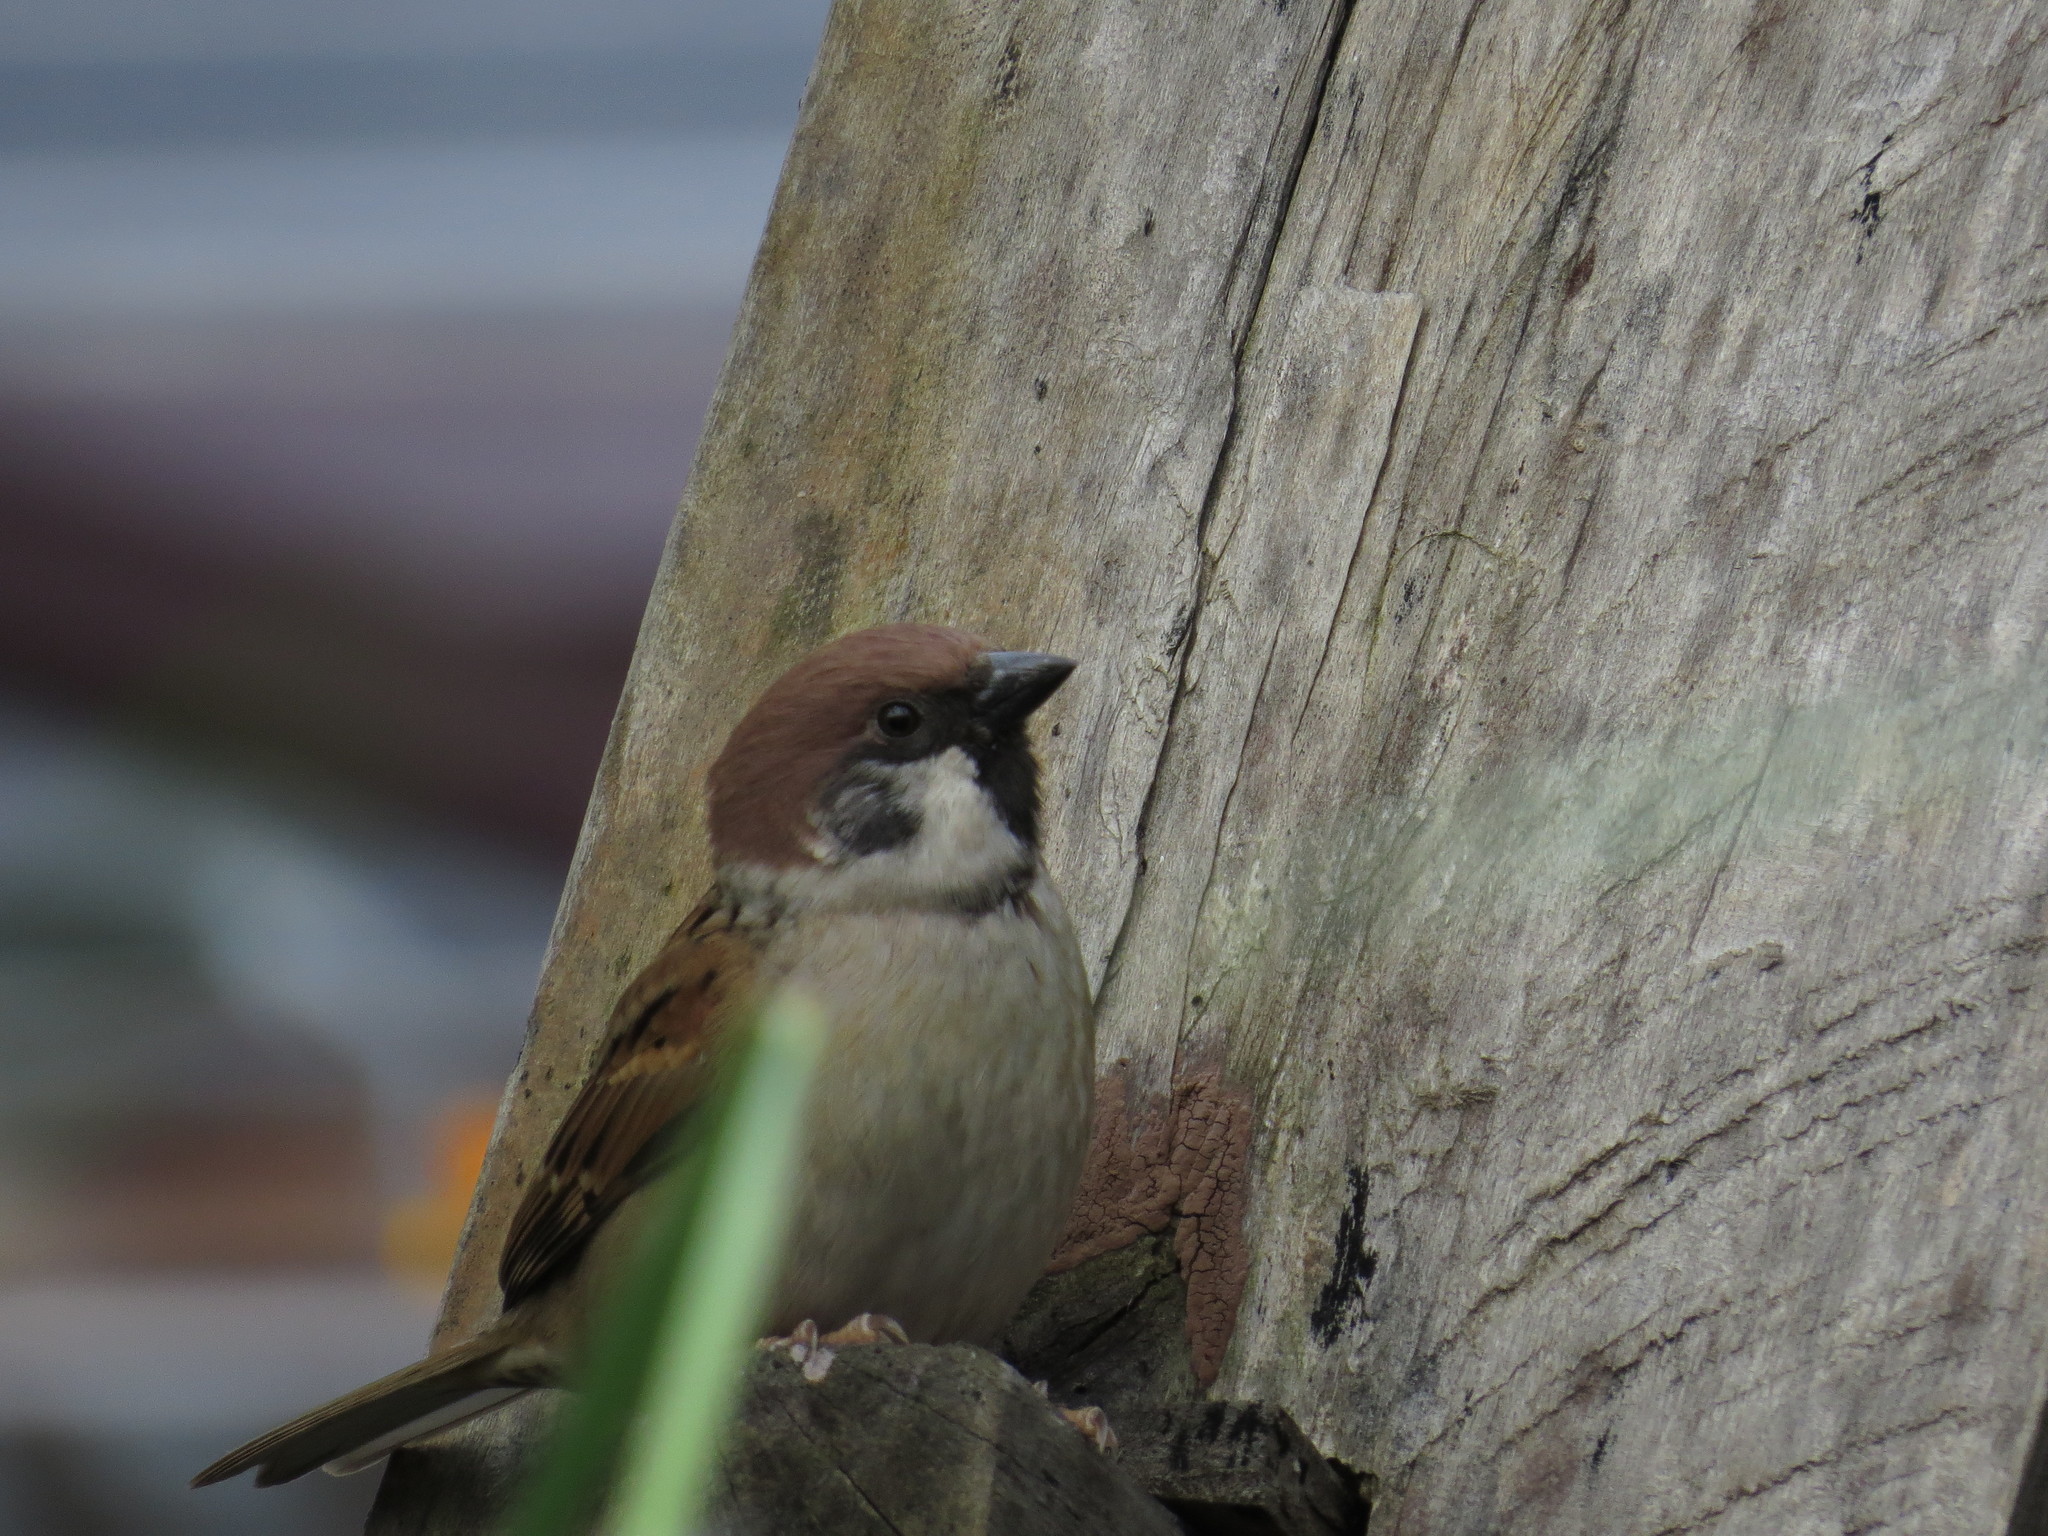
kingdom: Animalia
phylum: Chordata
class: Aves
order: Passeriformes
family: Passeridae
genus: Passer
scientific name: Passer montanus
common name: Eurasian tree sparrow
